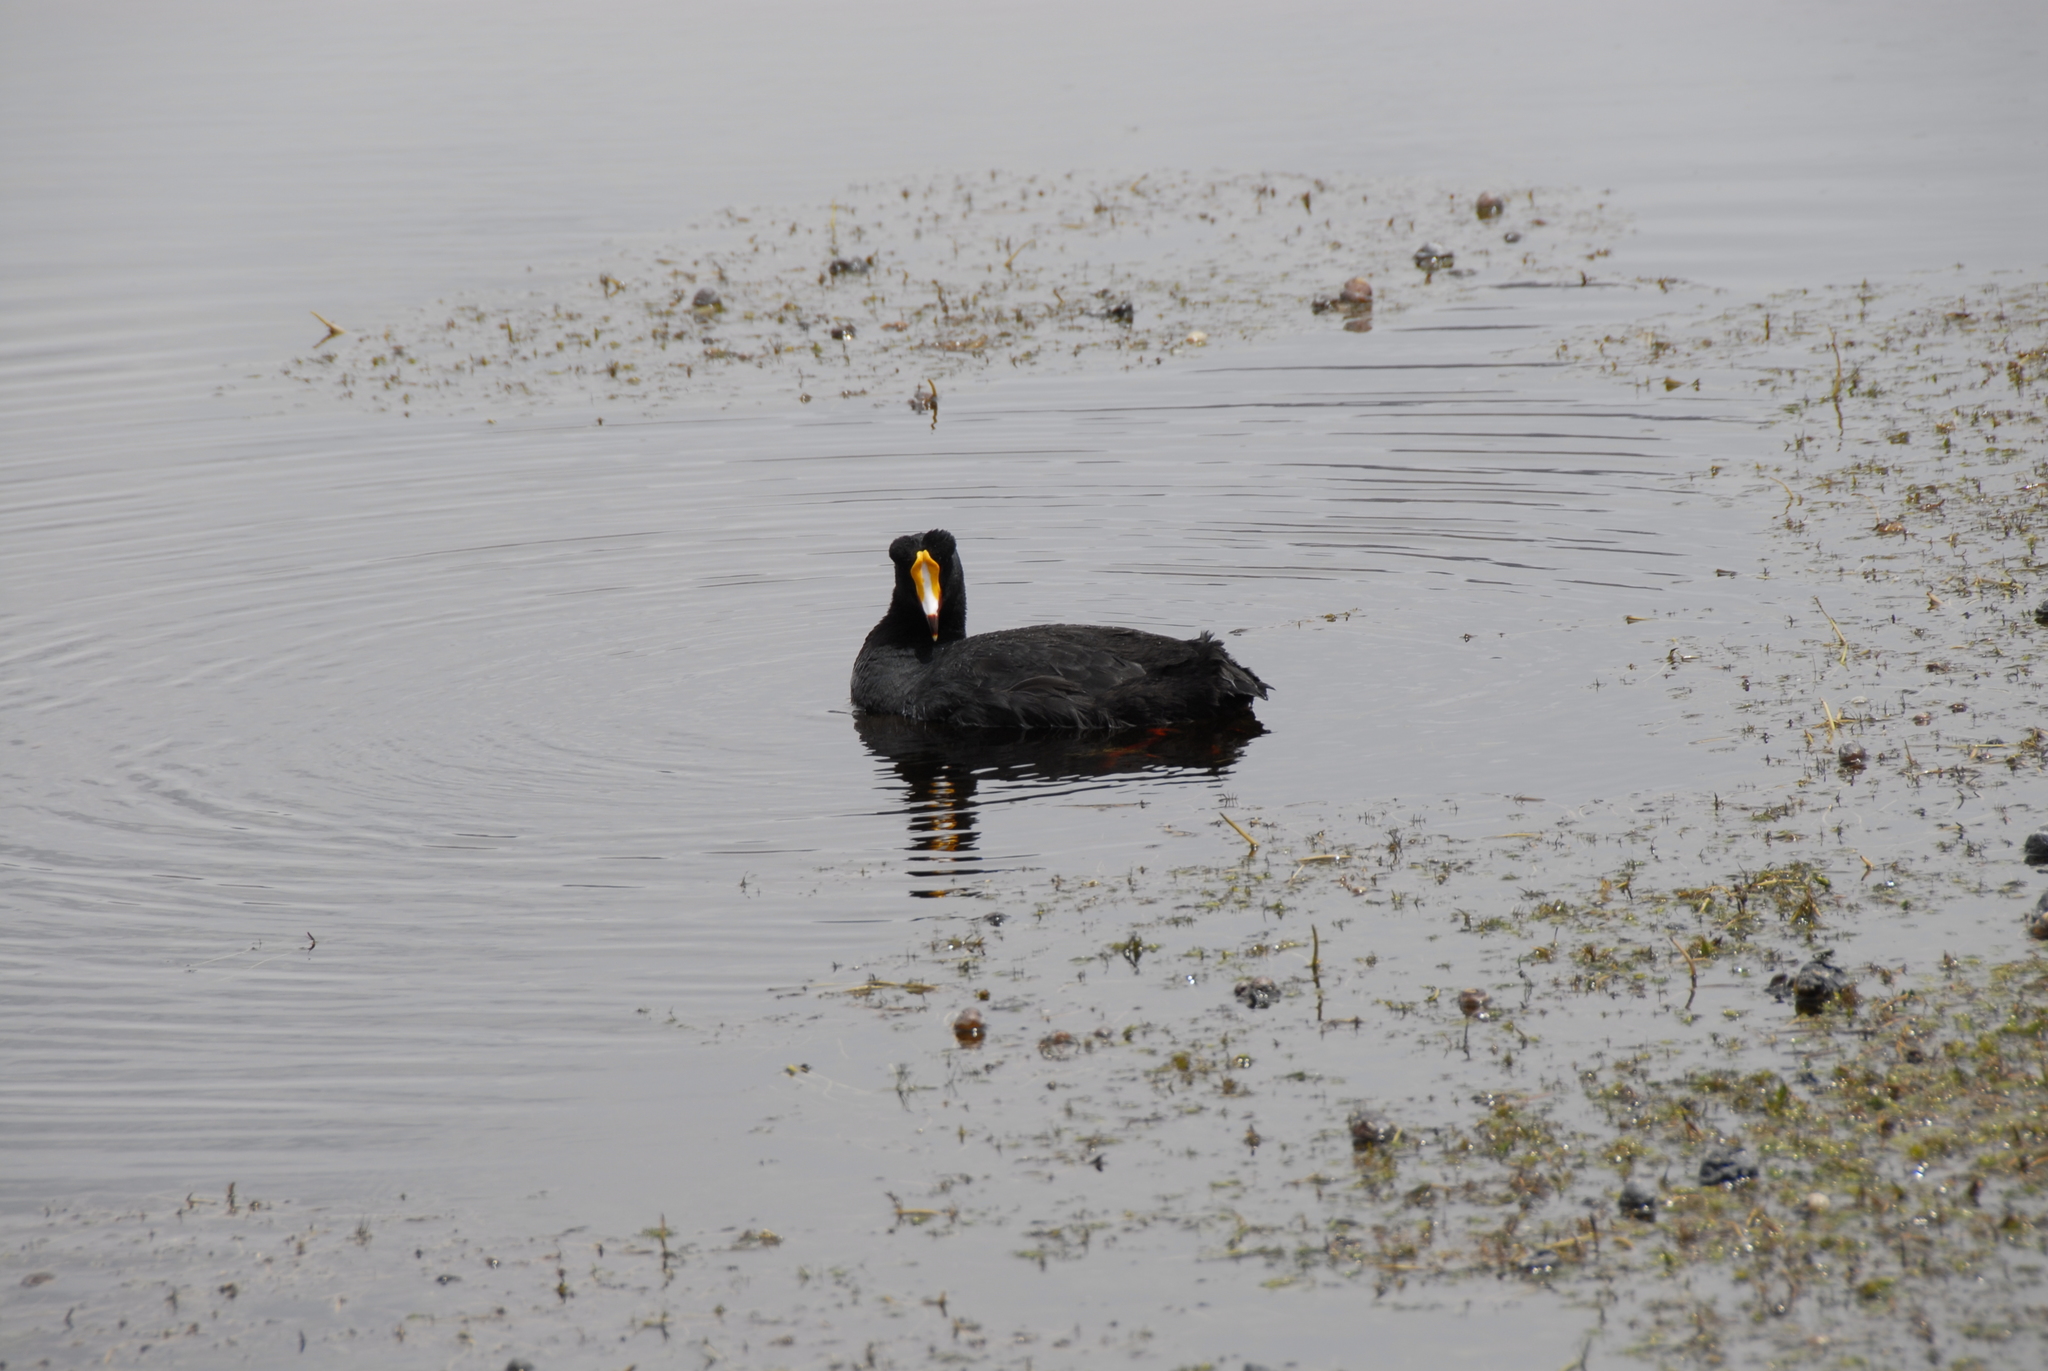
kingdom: Animalia
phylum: Chordata
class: Aves
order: Gruiformes
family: Rallidae
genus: Fulica
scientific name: Fulica gigantea
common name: Giant coot
